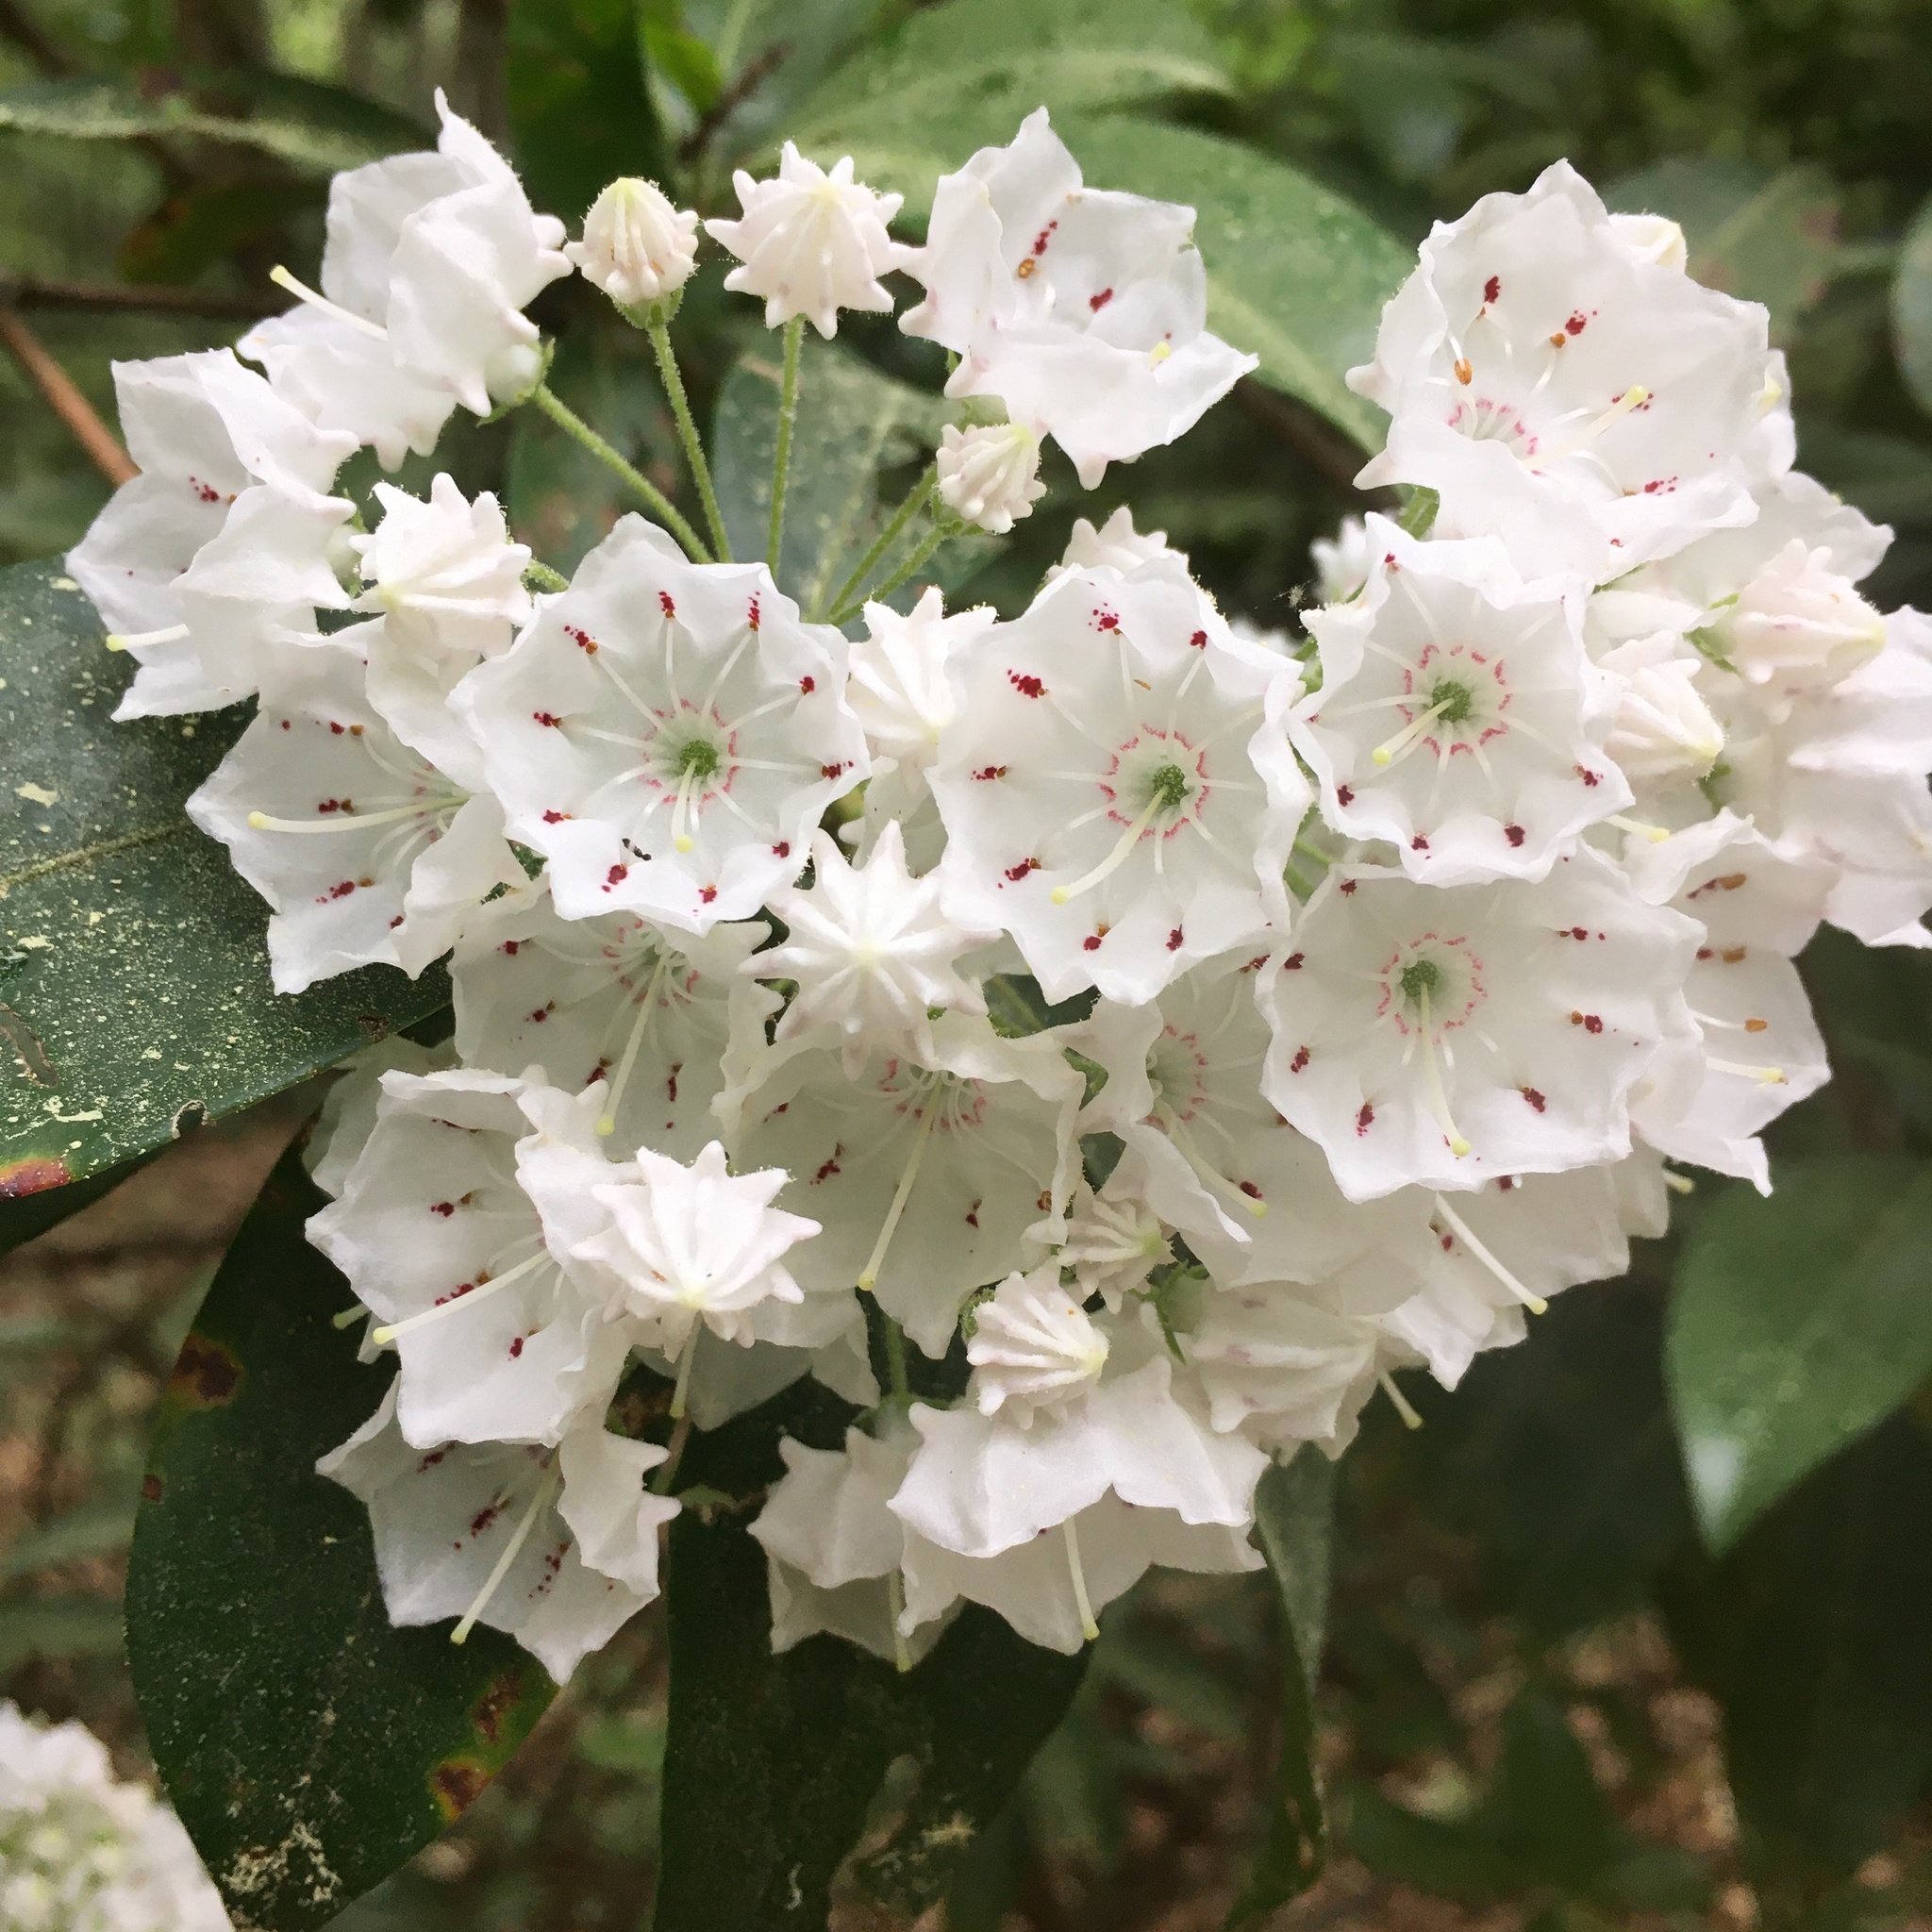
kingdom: Plantae
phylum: Tracheophyta
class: Magnoliopsida
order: Ericales
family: Ericaceae
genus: Kalmia
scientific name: Kalmia latifolia
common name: Mountain-laurel
